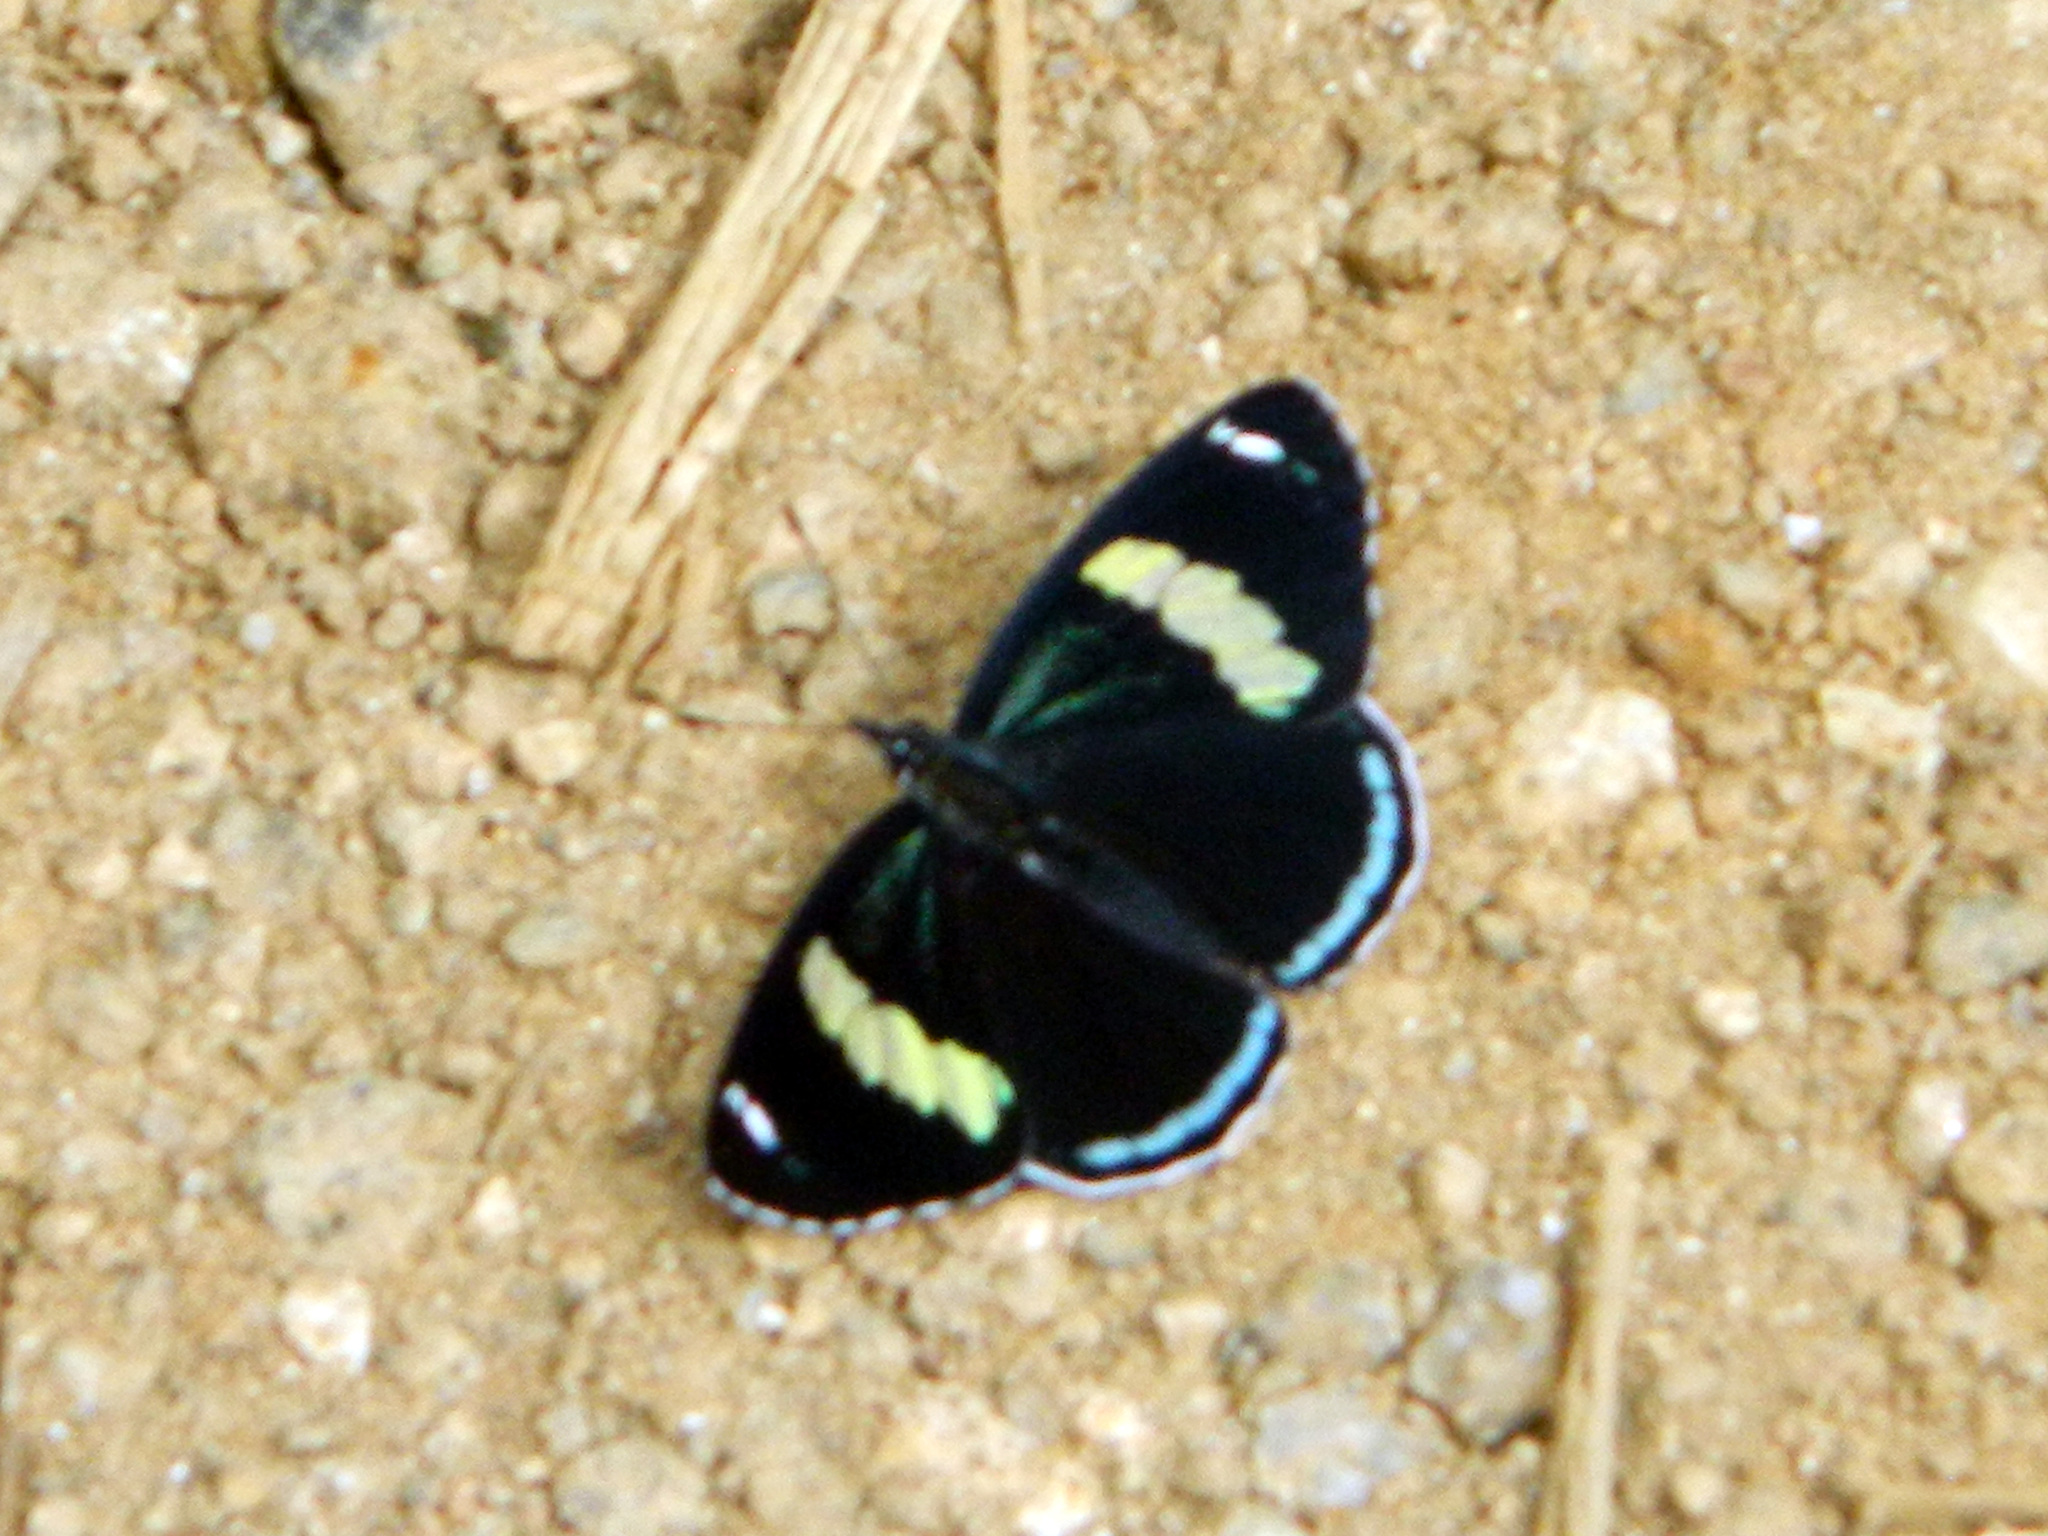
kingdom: Animalia
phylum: Arthropoda
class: Insecta
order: Lepidoptera
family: Nymphalidae
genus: Diaethria
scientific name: Diaethria anna
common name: Anna’s eighty-eight
